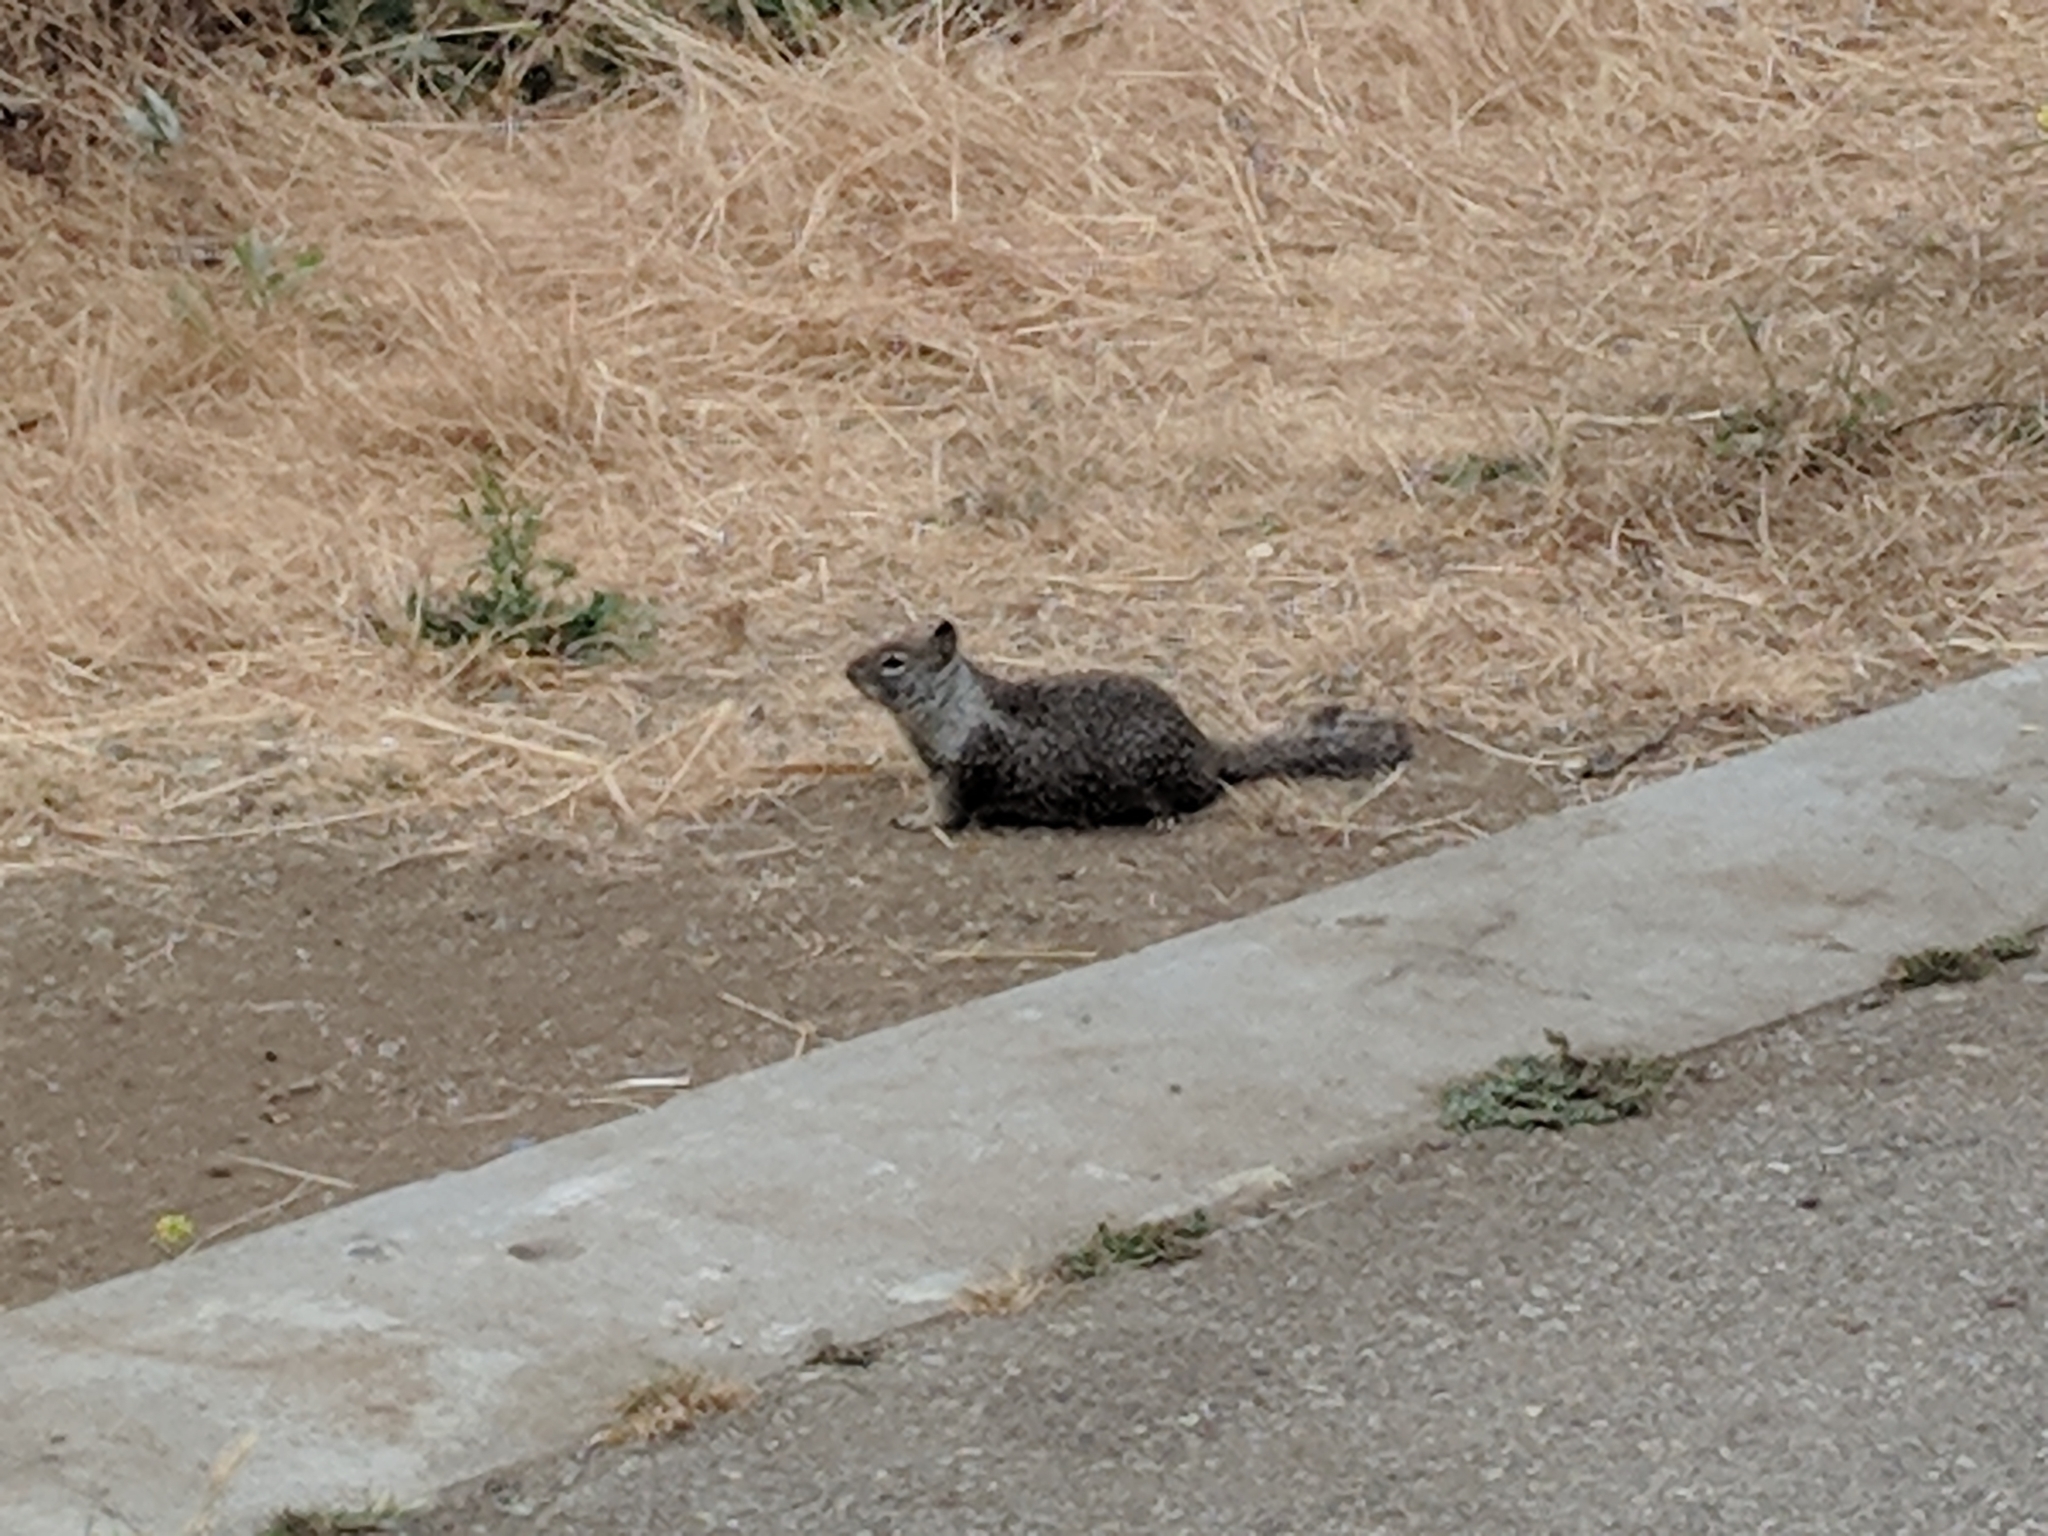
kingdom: Animalia
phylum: Chordata
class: Mammalia
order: Rodentia
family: Sciuridae
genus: Otospermophilus
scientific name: Otospermophilus beecheyi
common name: California ground squirrel
